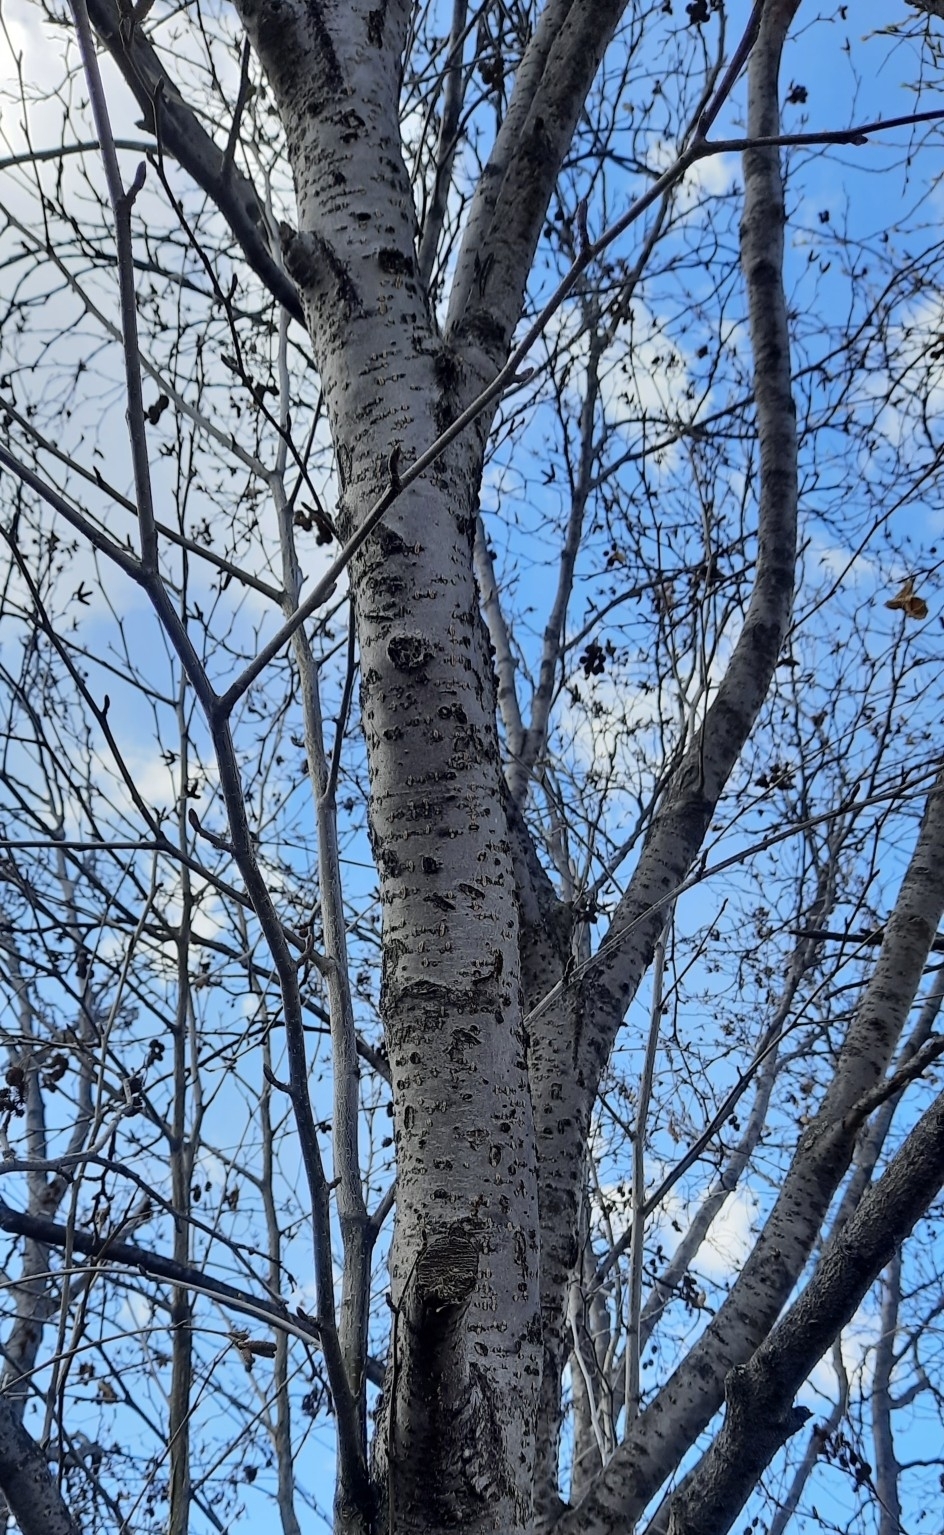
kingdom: Plantae
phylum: Tracheophyta
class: Magnoliopsida
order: Fagales
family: Betulaceae
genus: Alnus
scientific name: Alnus incana
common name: Grey alder
